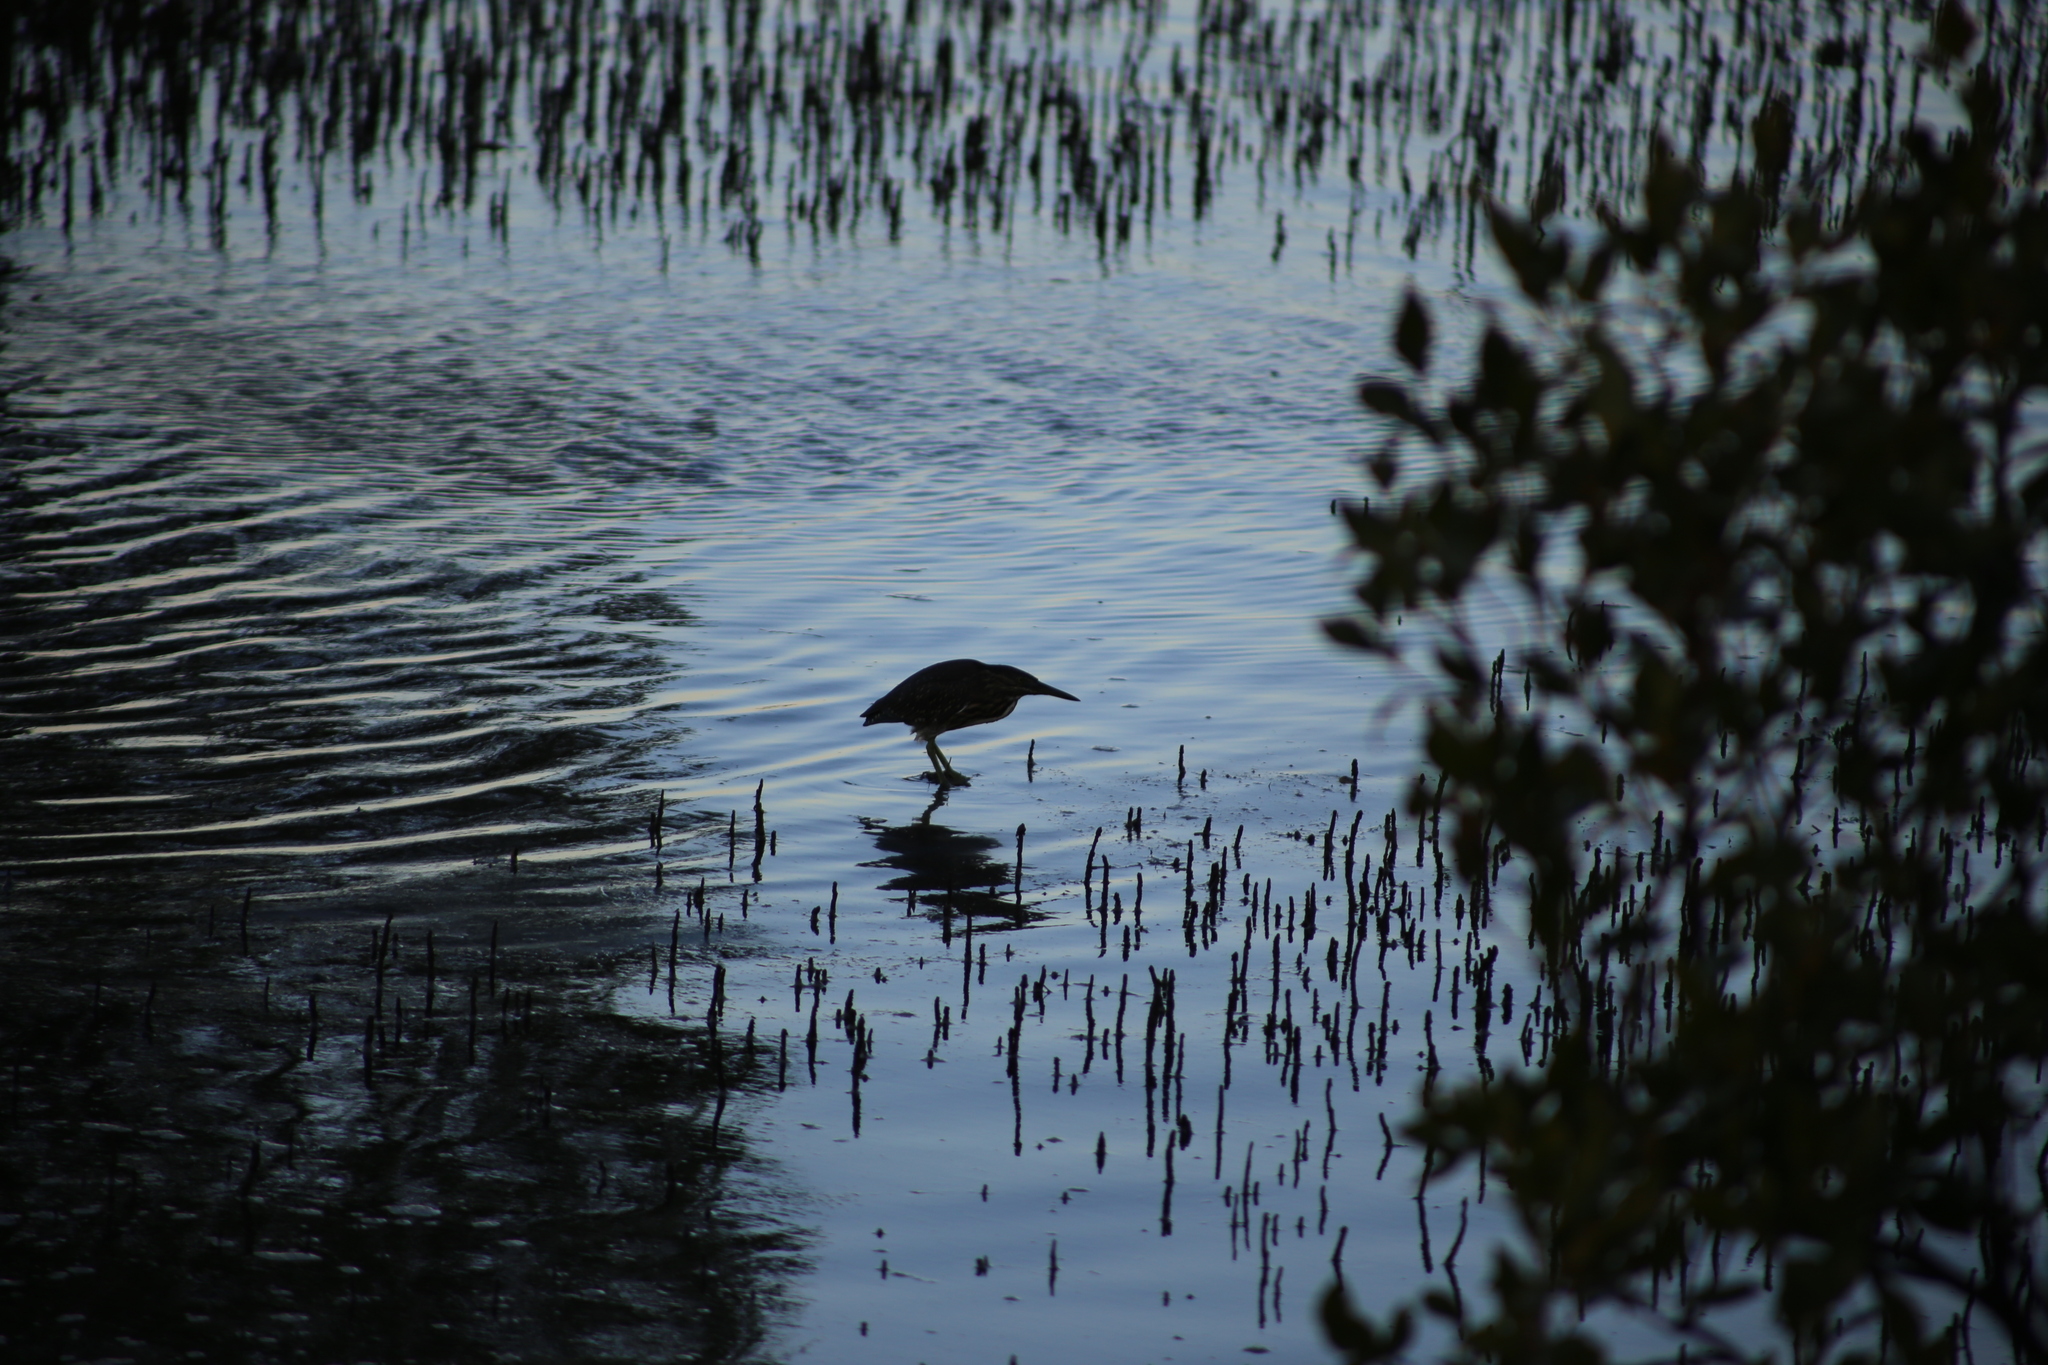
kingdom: Animalia
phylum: Chordata
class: Aves
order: Pelecaniformes
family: Ardeidae
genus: Butorides
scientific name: Butorides striata
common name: Striated heron
